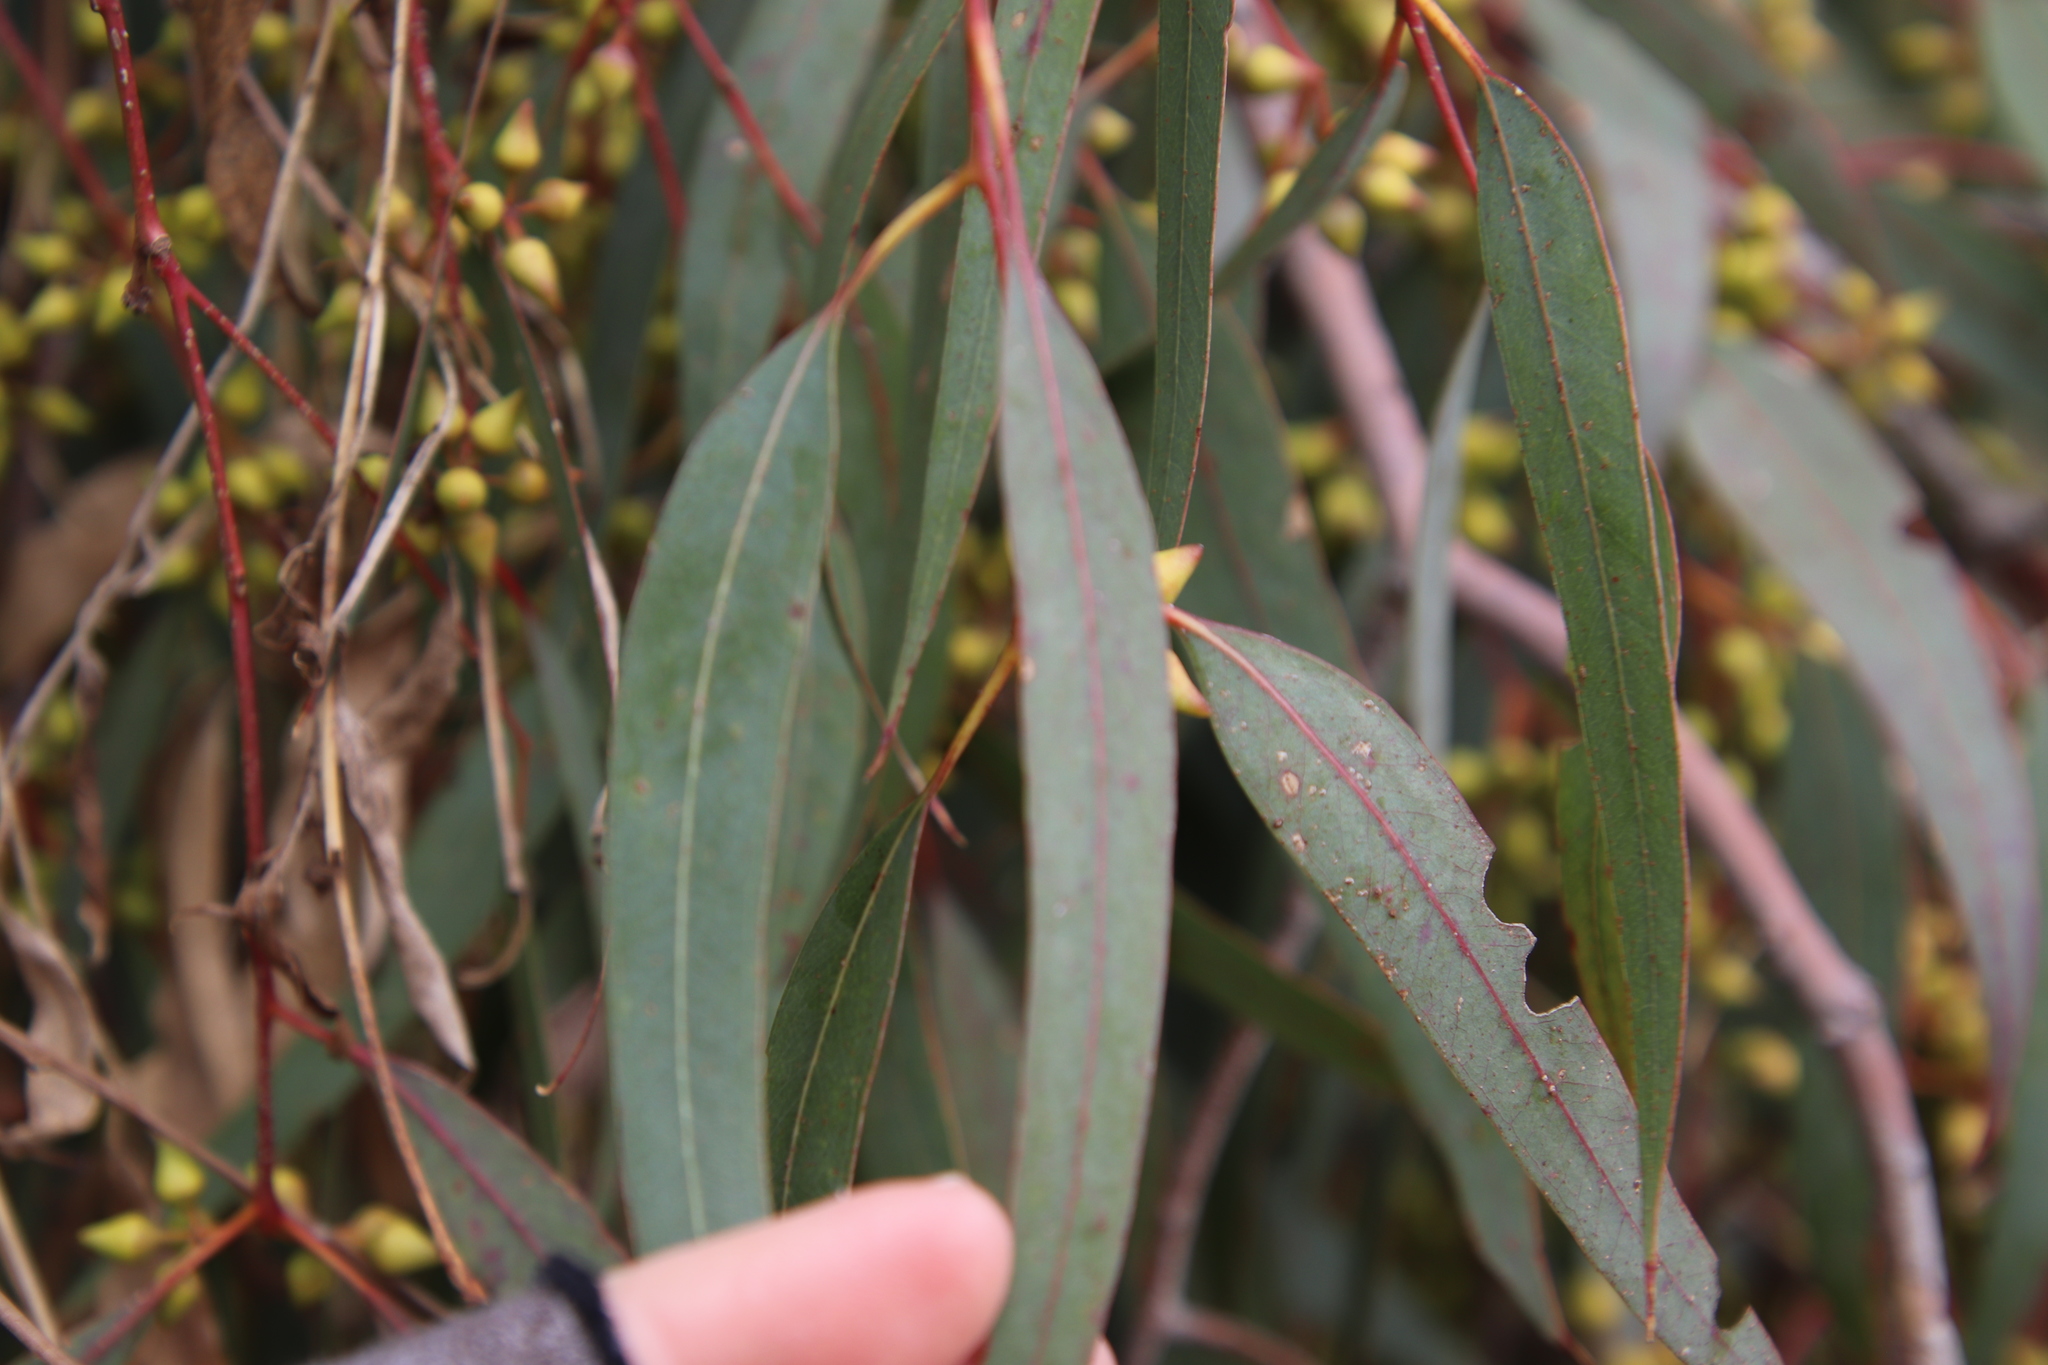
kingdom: Plantae
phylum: Tracheophyta
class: Magnoliopsida
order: Myrtales
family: Myrtaceae
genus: Eucalyptus
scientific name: Eucalyptus camaldulensis
